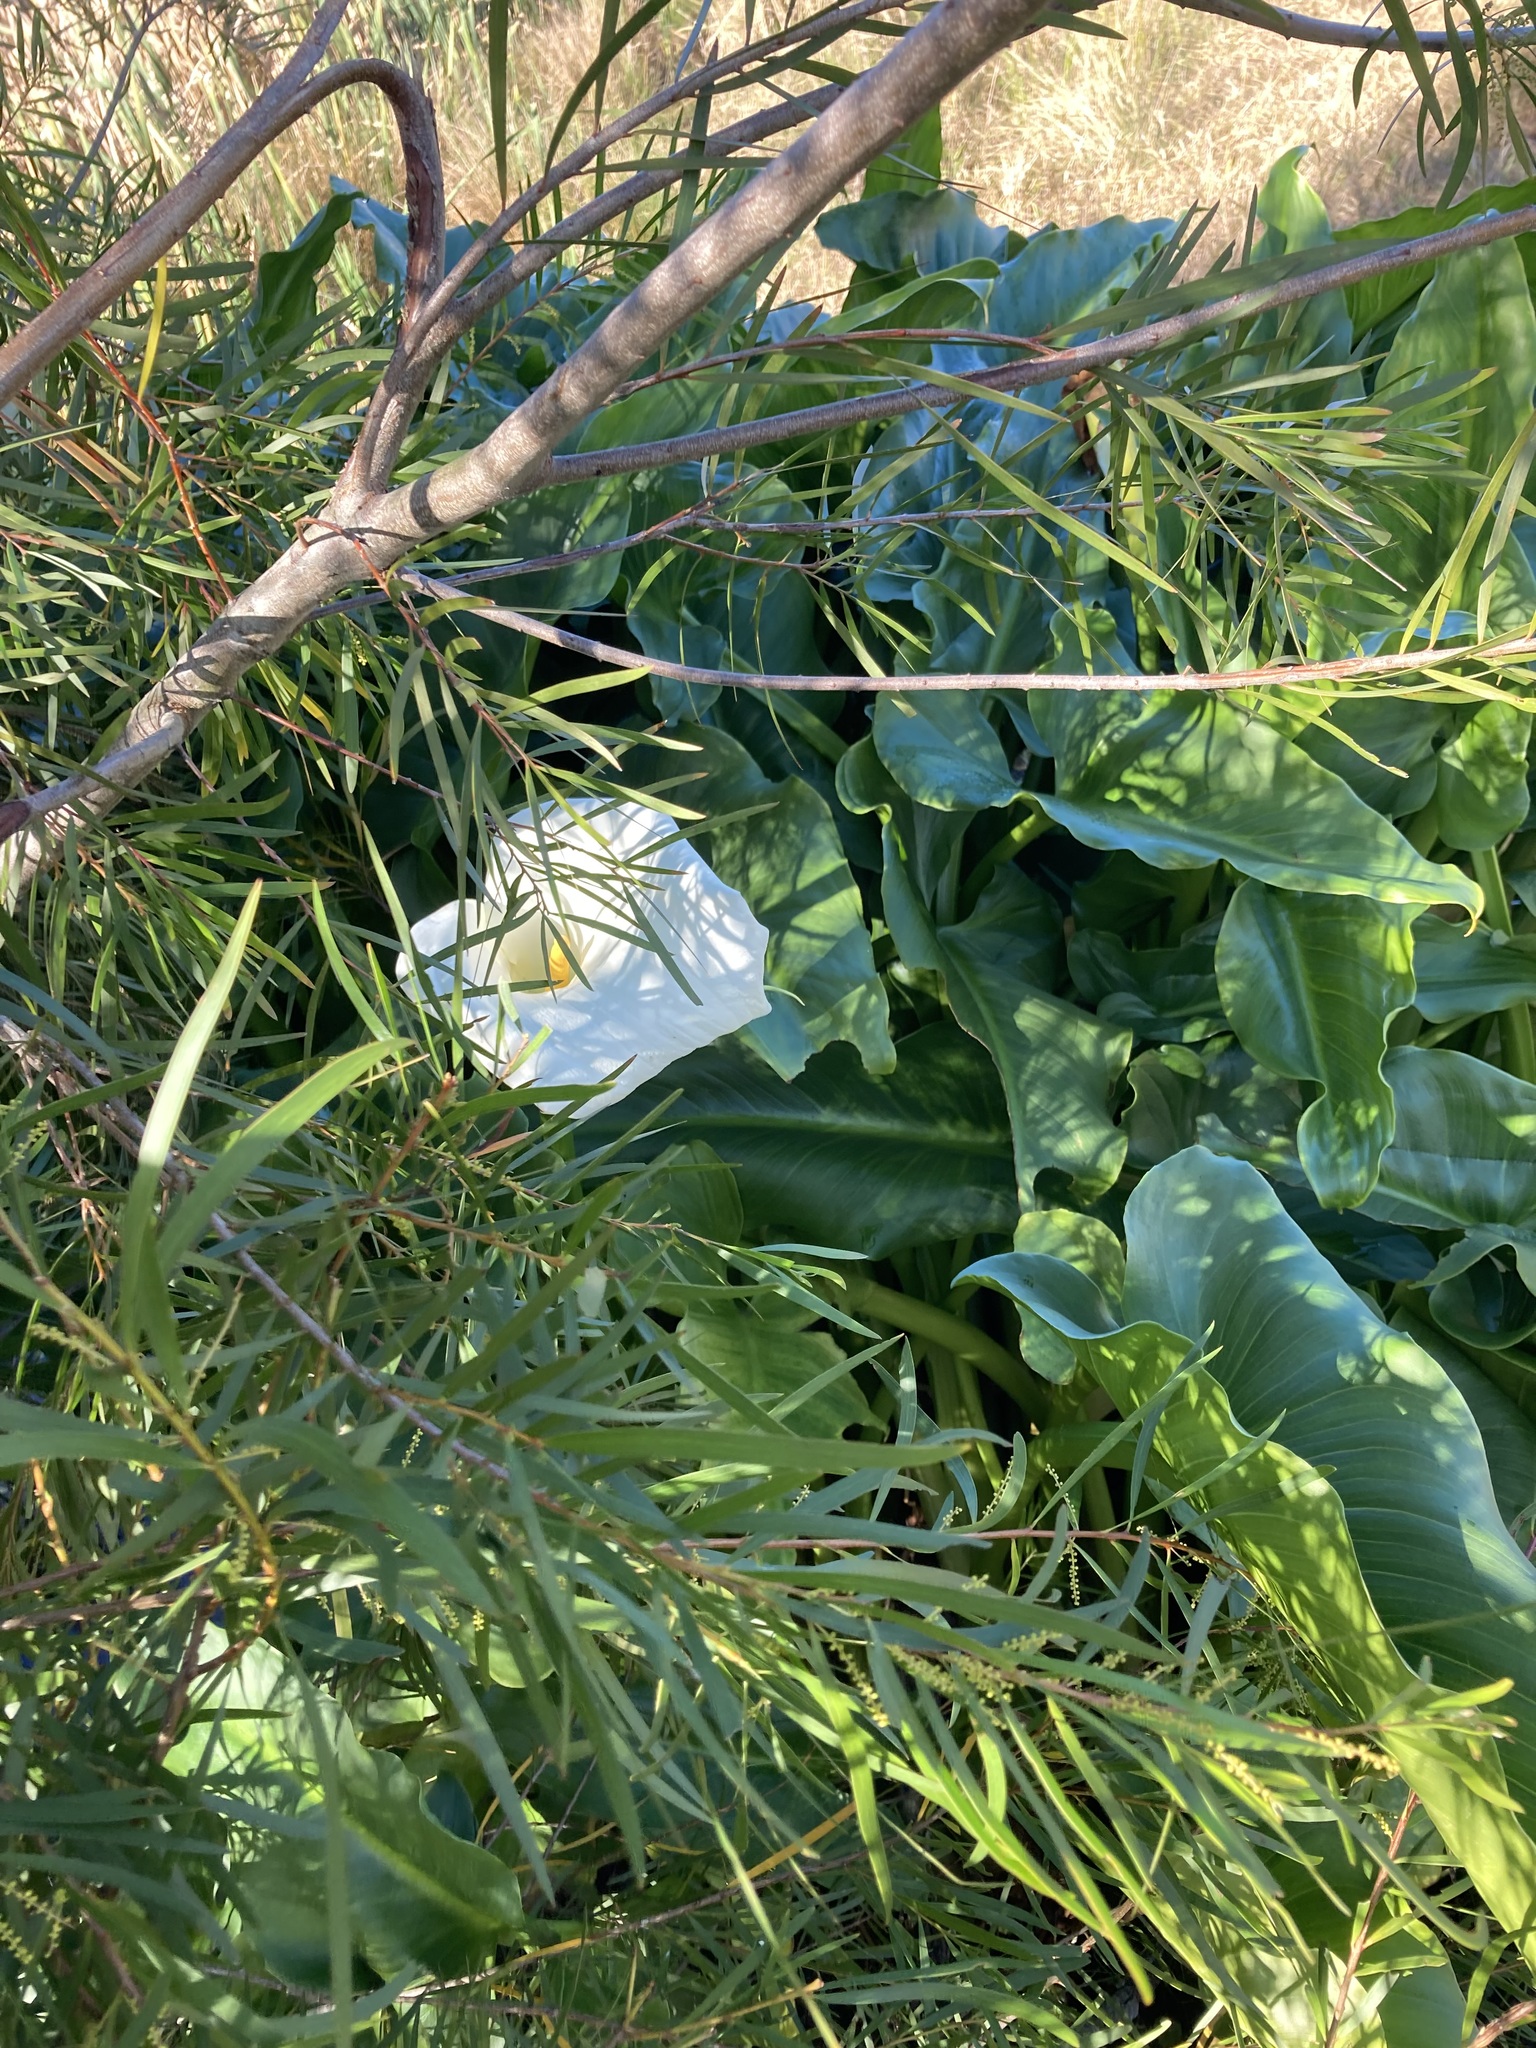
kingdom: Plantae
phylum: Tracheophyta
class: Liliopsida
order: Alismatales
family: Araceae
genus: Zantedeschia
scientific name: Zantedeschia aethiopica
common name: Altar-lily
